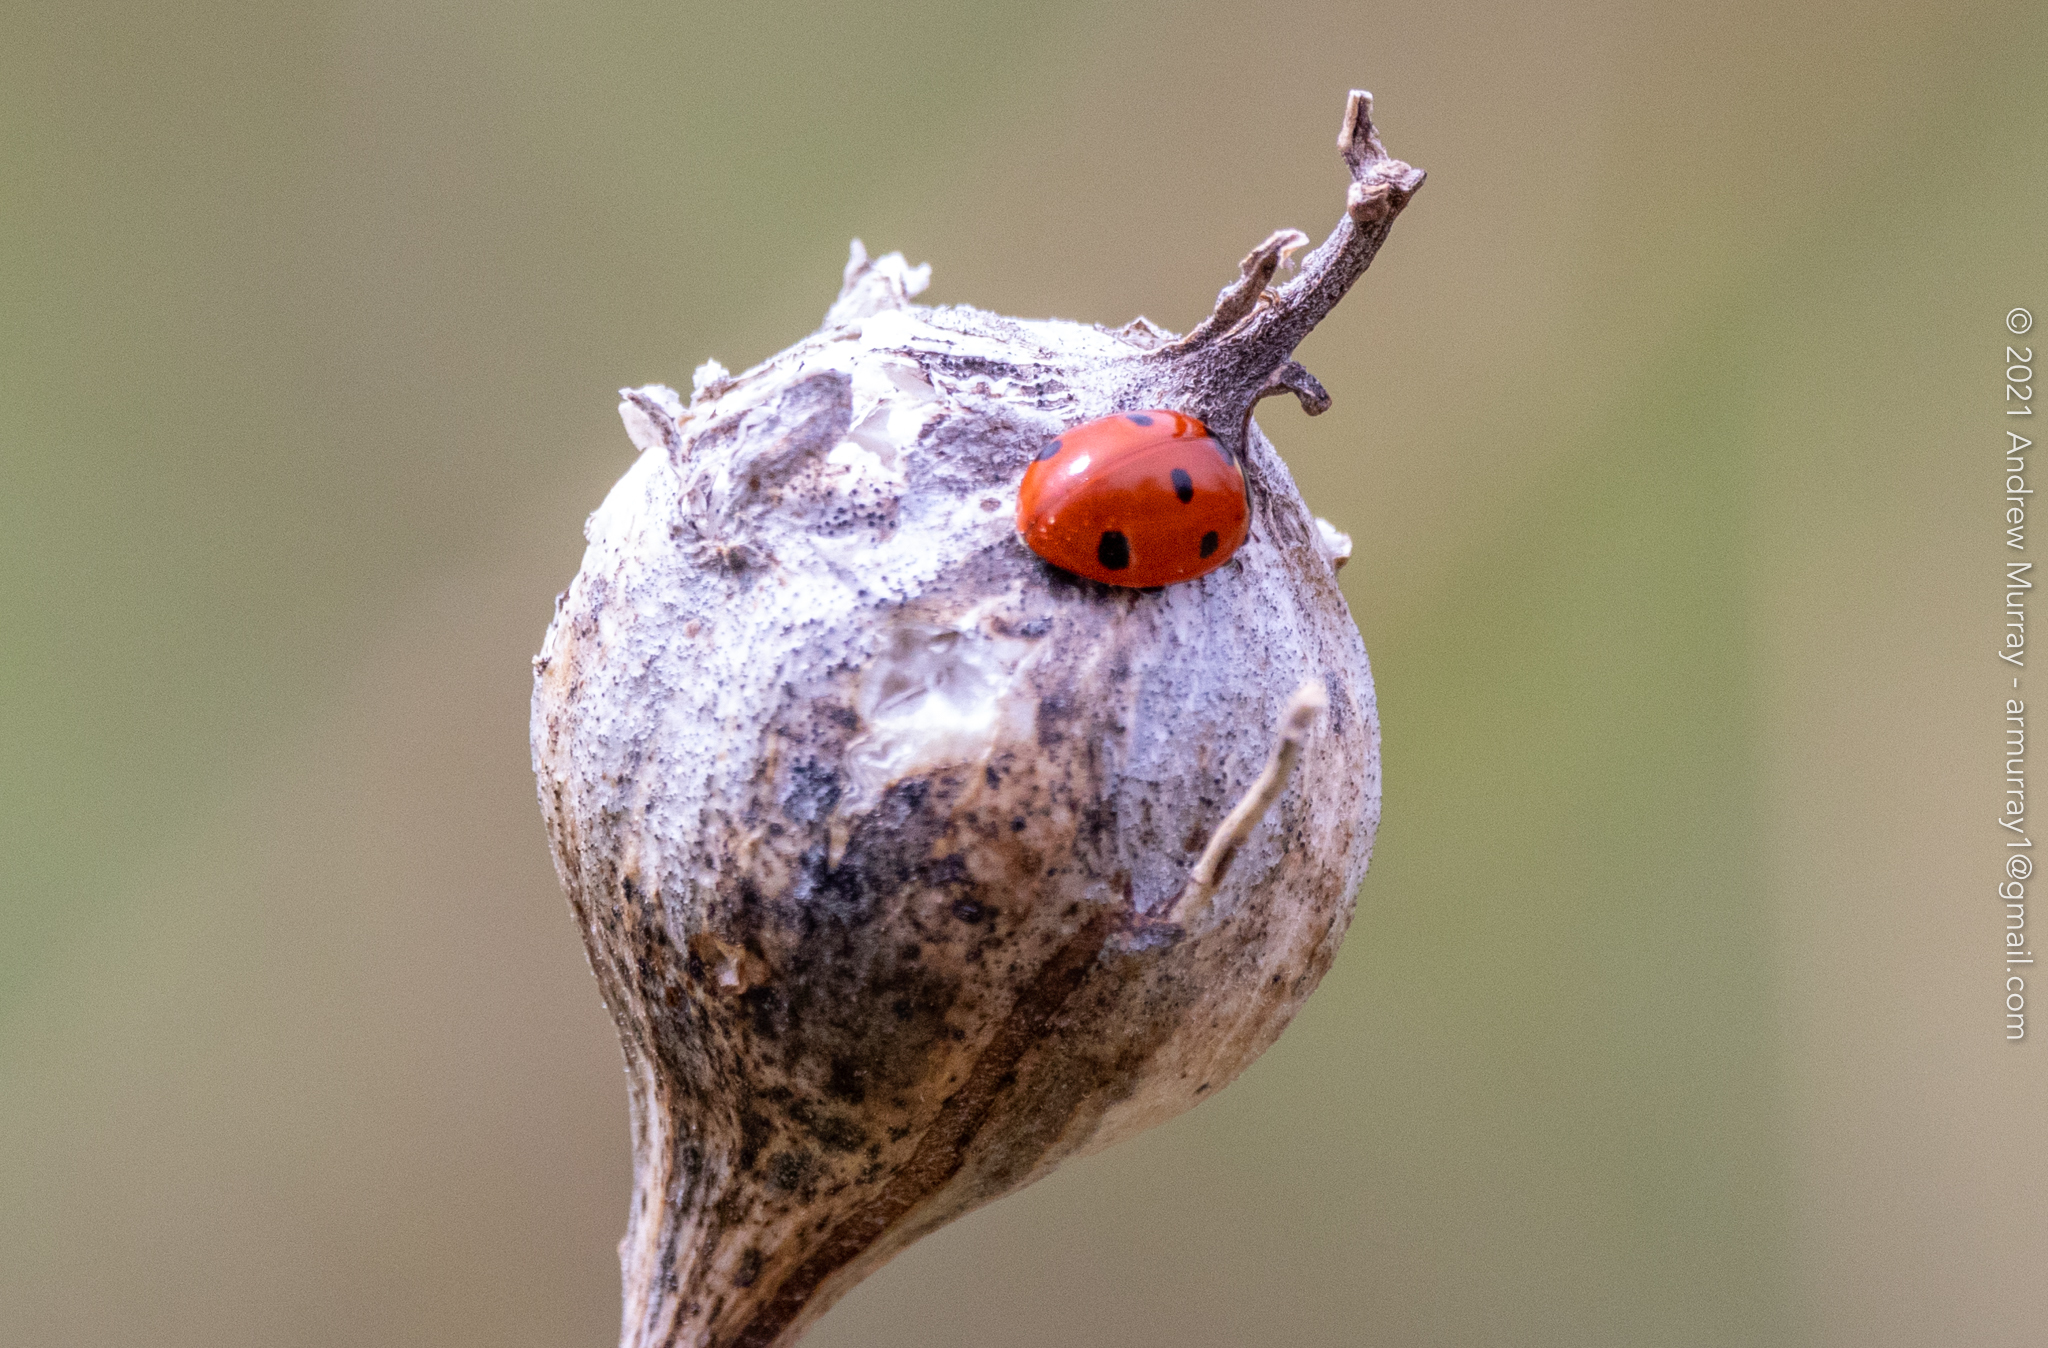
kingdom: Animalia
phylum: Arthropoda
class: Insecta
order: Coleoptera
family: Coccinellidae
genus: Coccinella
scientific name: Coccinella septempunctata
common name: Sevenspotted lady beetle
